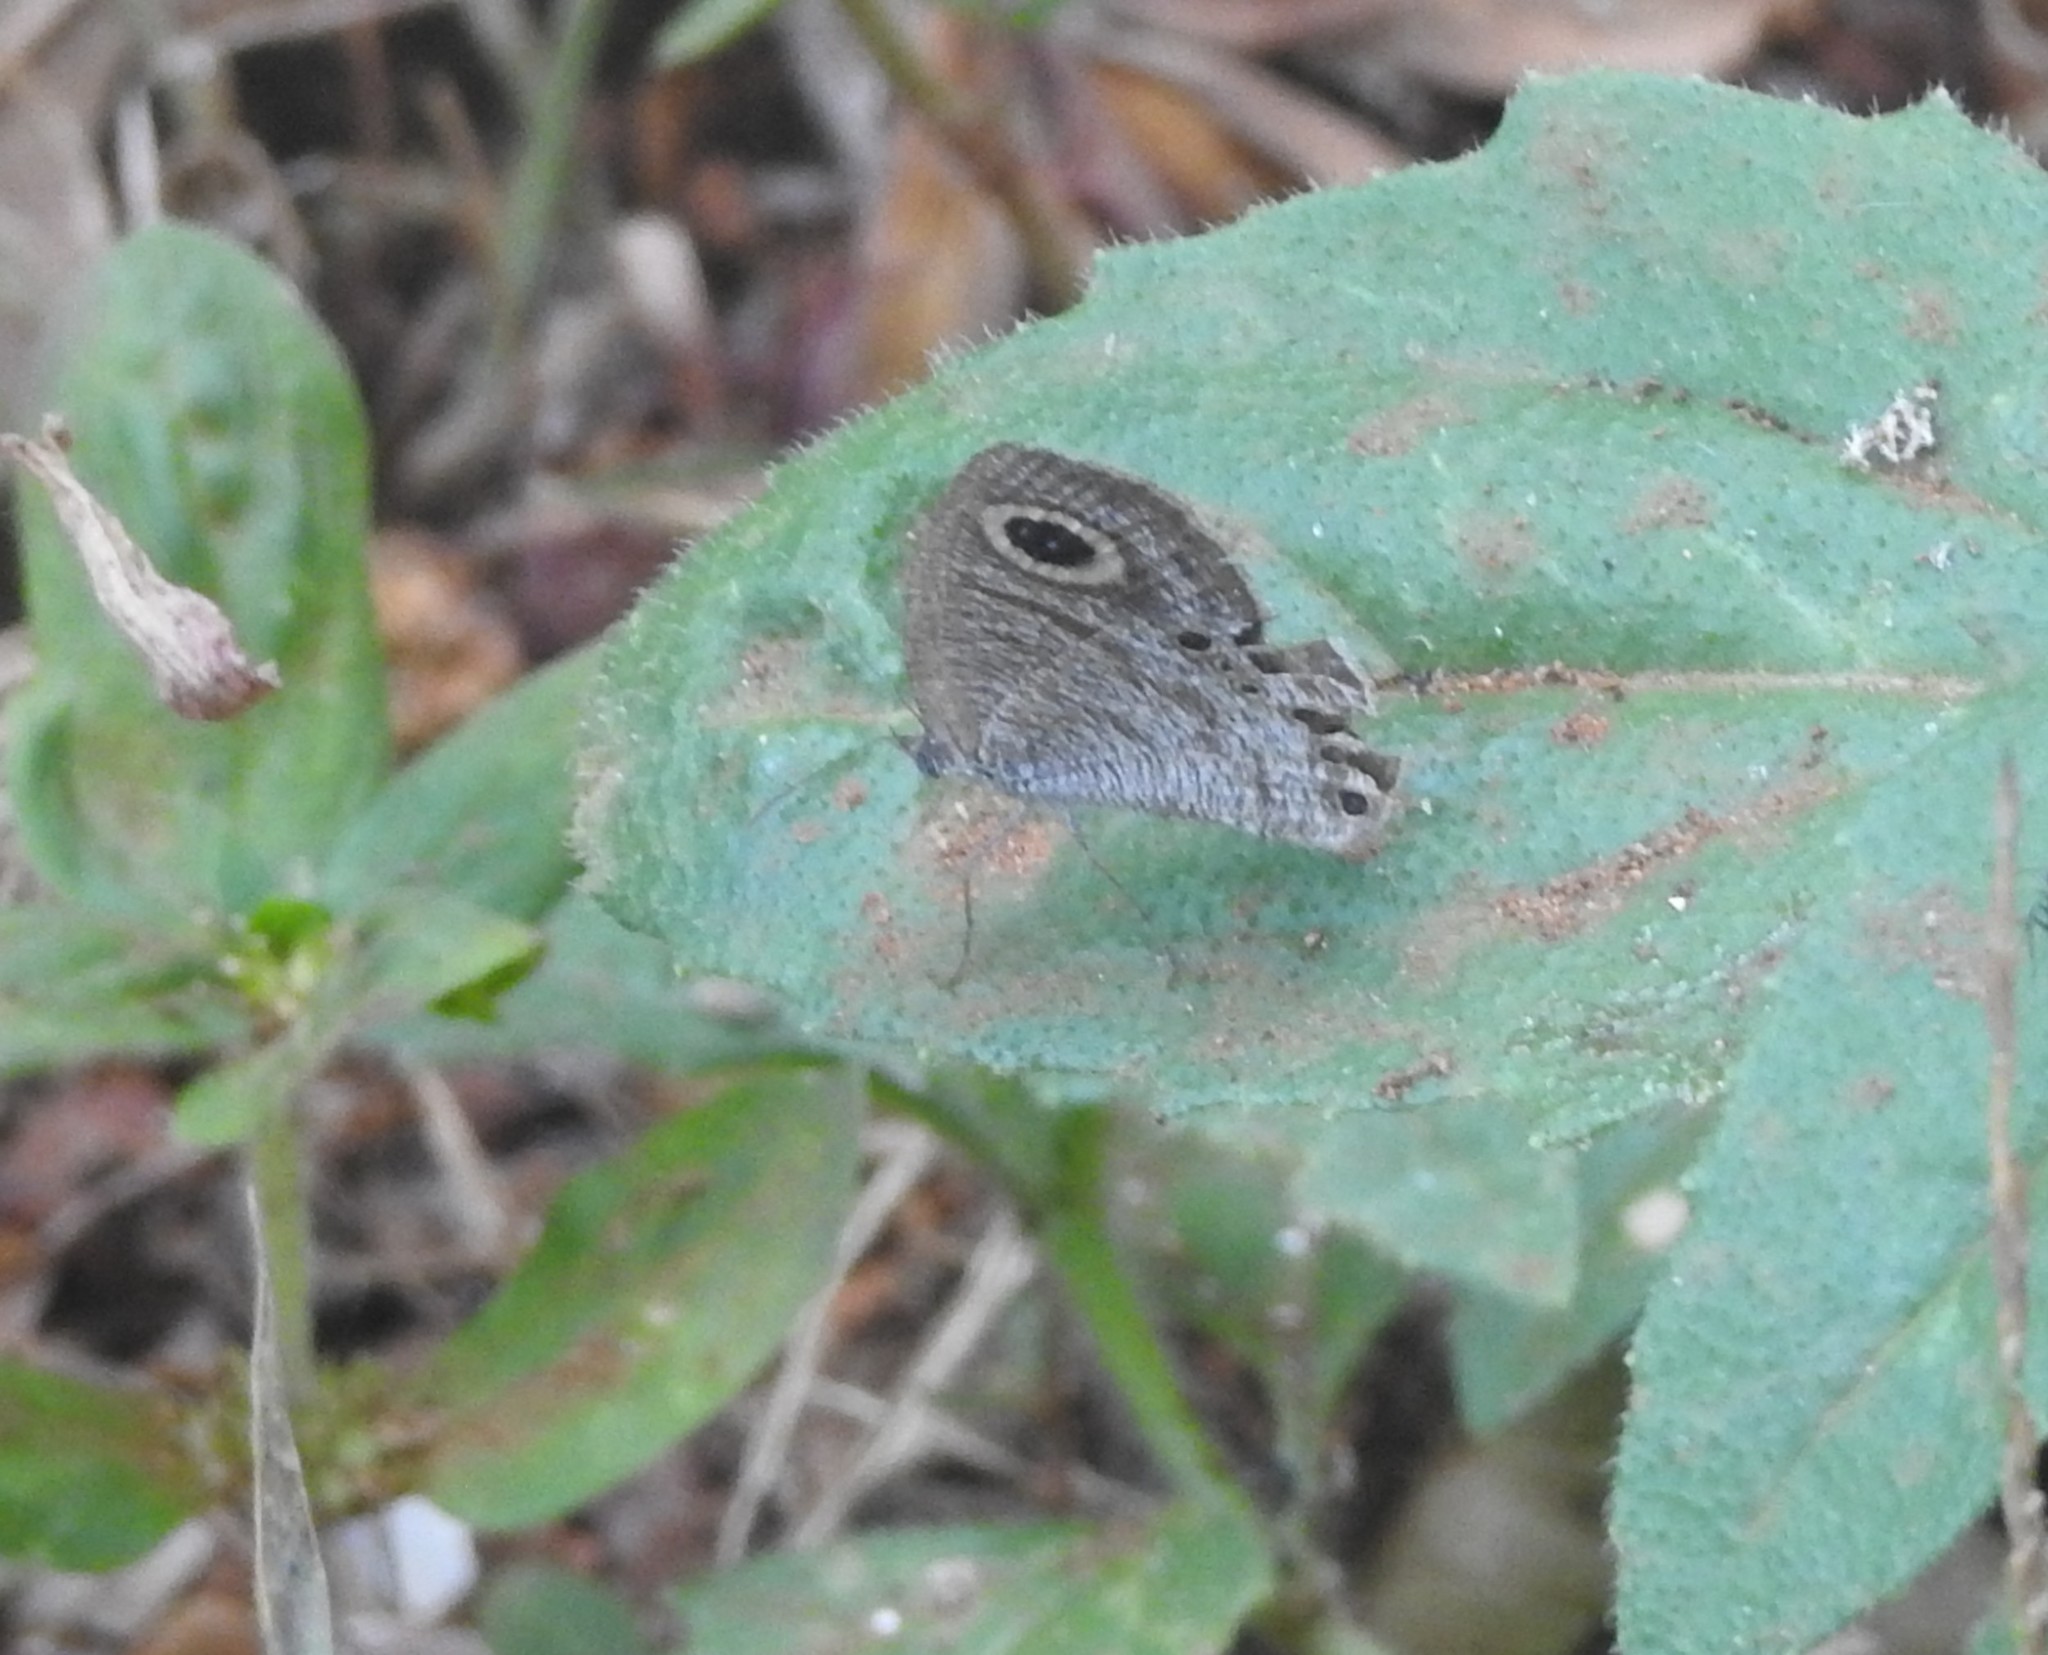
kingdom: Animalia
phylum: Arthropoda
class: Insecta
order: Lepidoptera
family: Nymphalidae
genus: Ypthima
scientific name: Ypthima huebneri
